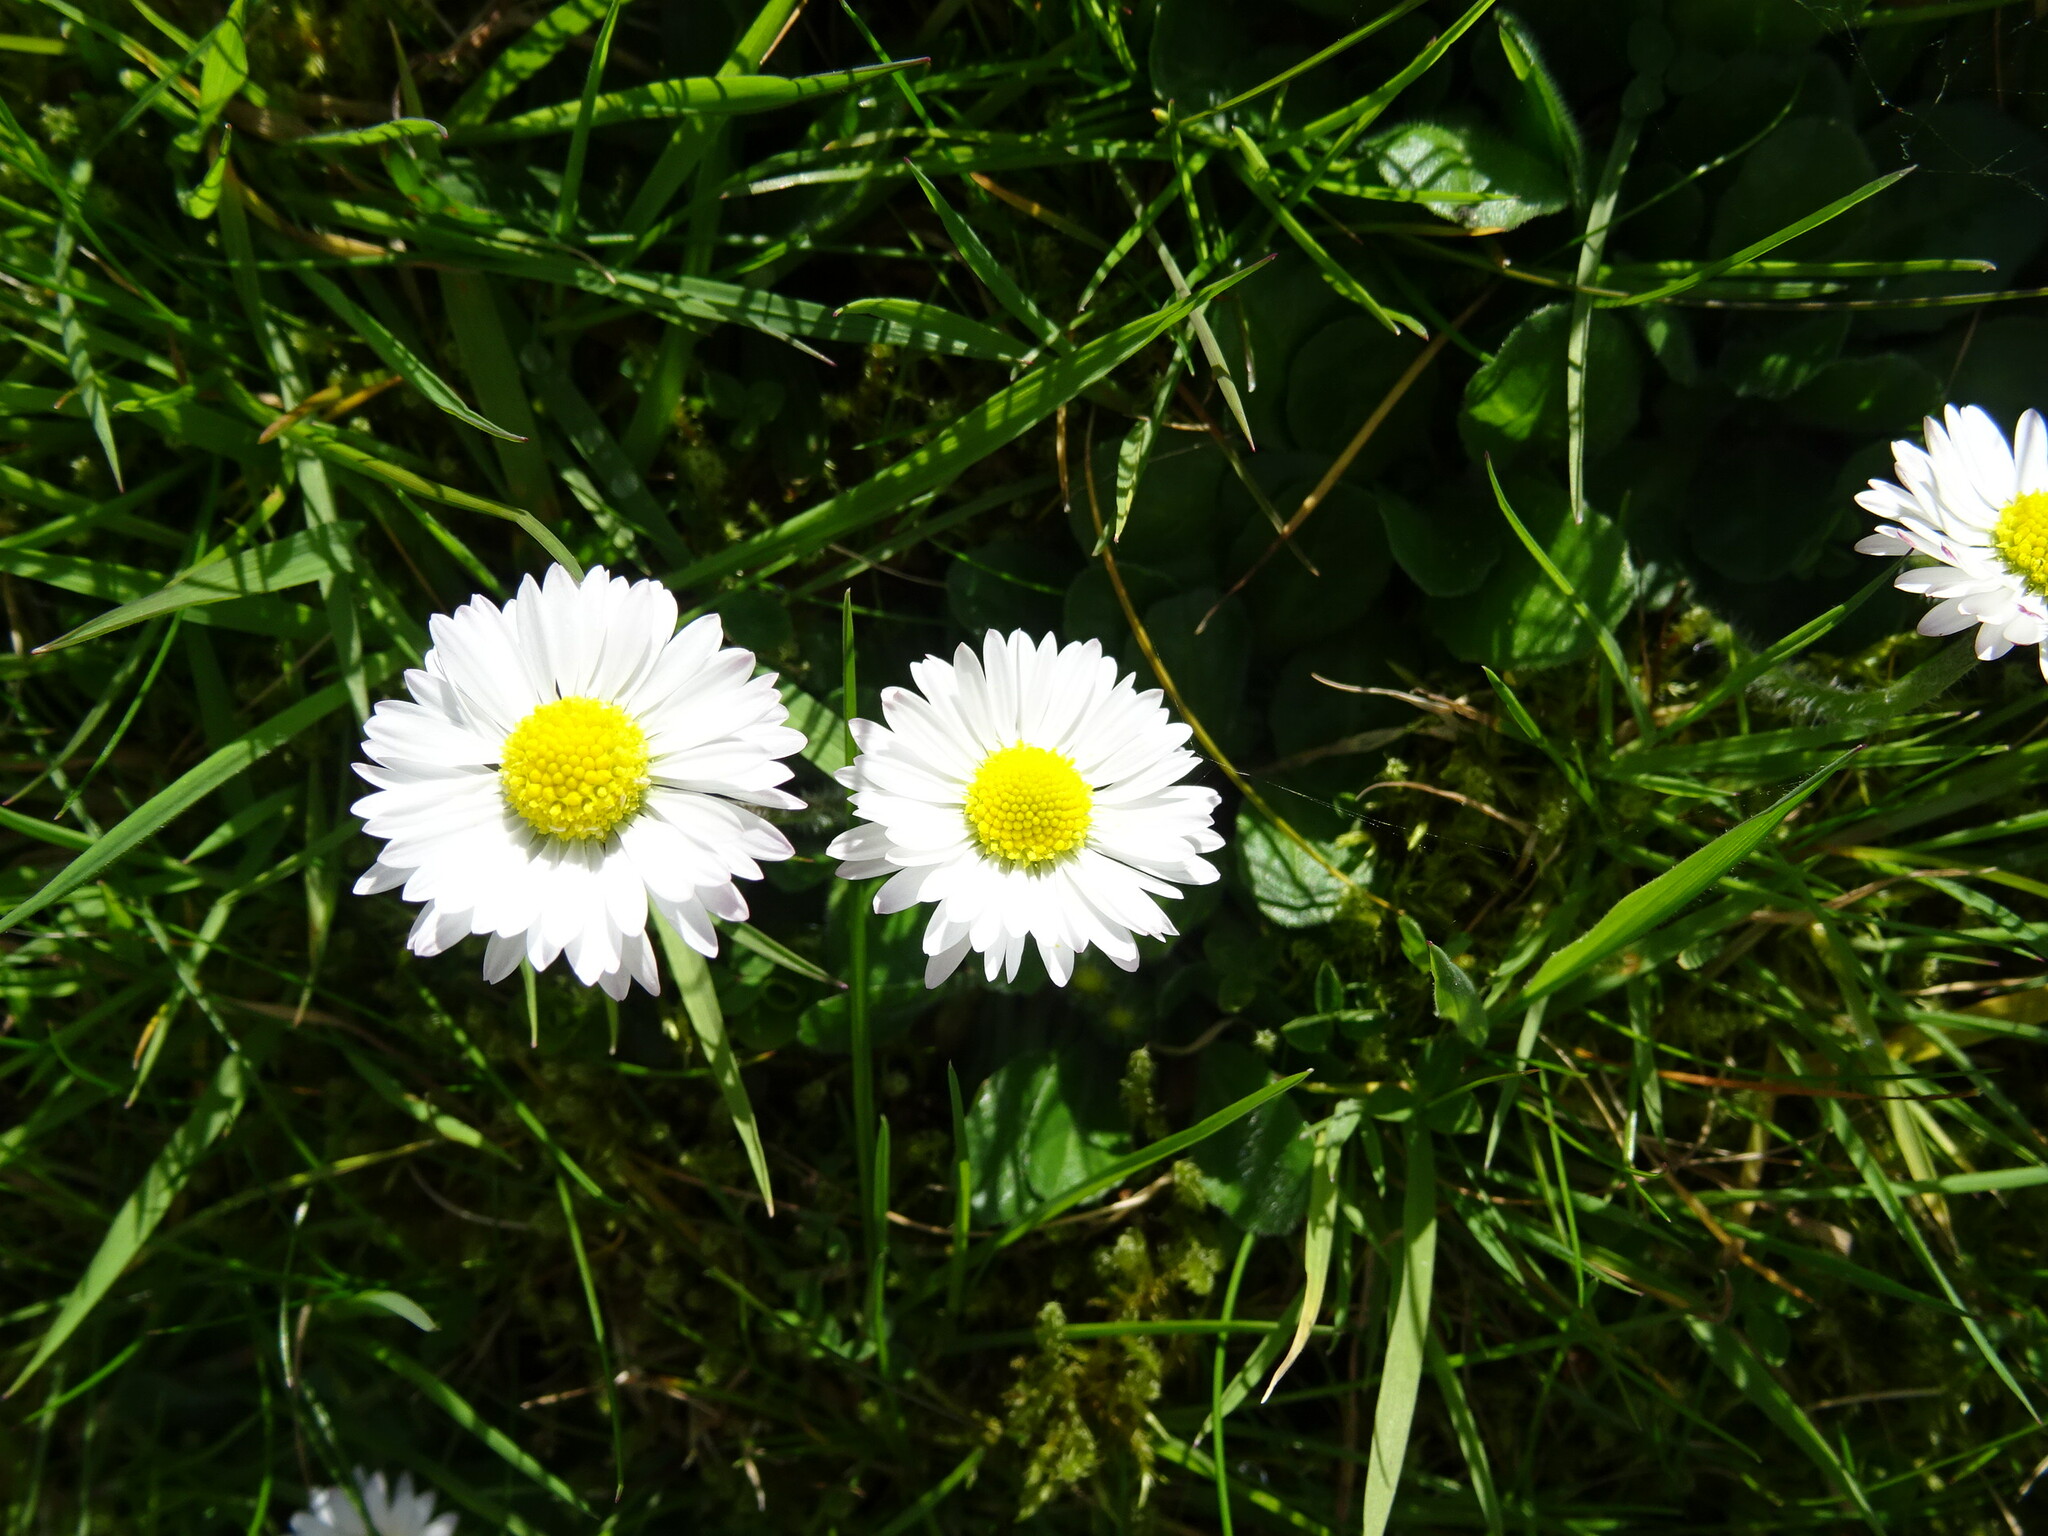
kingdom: Plantae
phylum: Tracheophyta
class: Magnoliopsida
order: Asterales
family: Asteraceae
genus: Bellis
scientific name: Bellis perennis
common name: Lawndaisy
